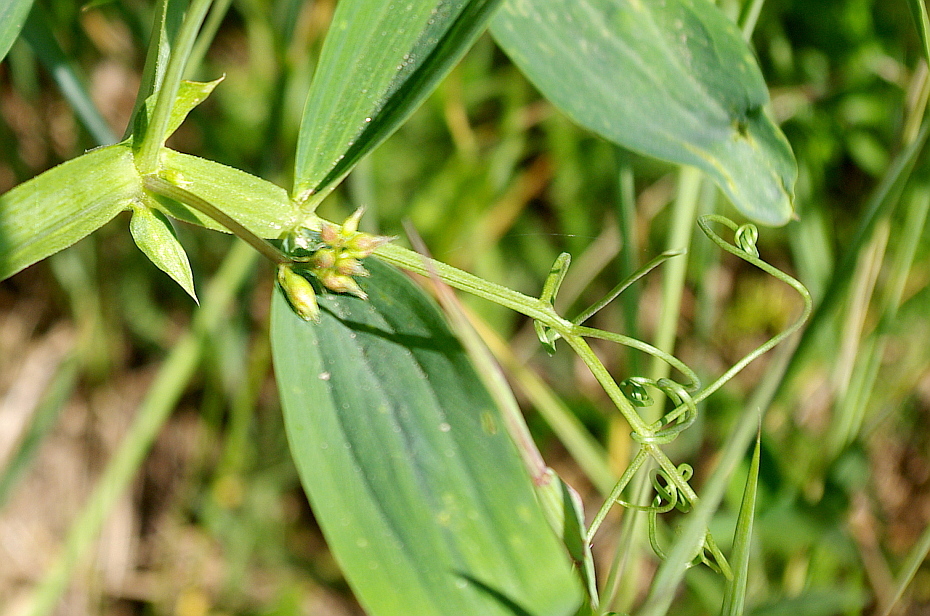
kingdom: Plantae
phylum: Tracheophyta
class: Magnoliopsida
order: Fabales
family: Fabaceae
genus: Lathyrus
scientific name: Lathyrus sylvestris
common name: Flat pea
